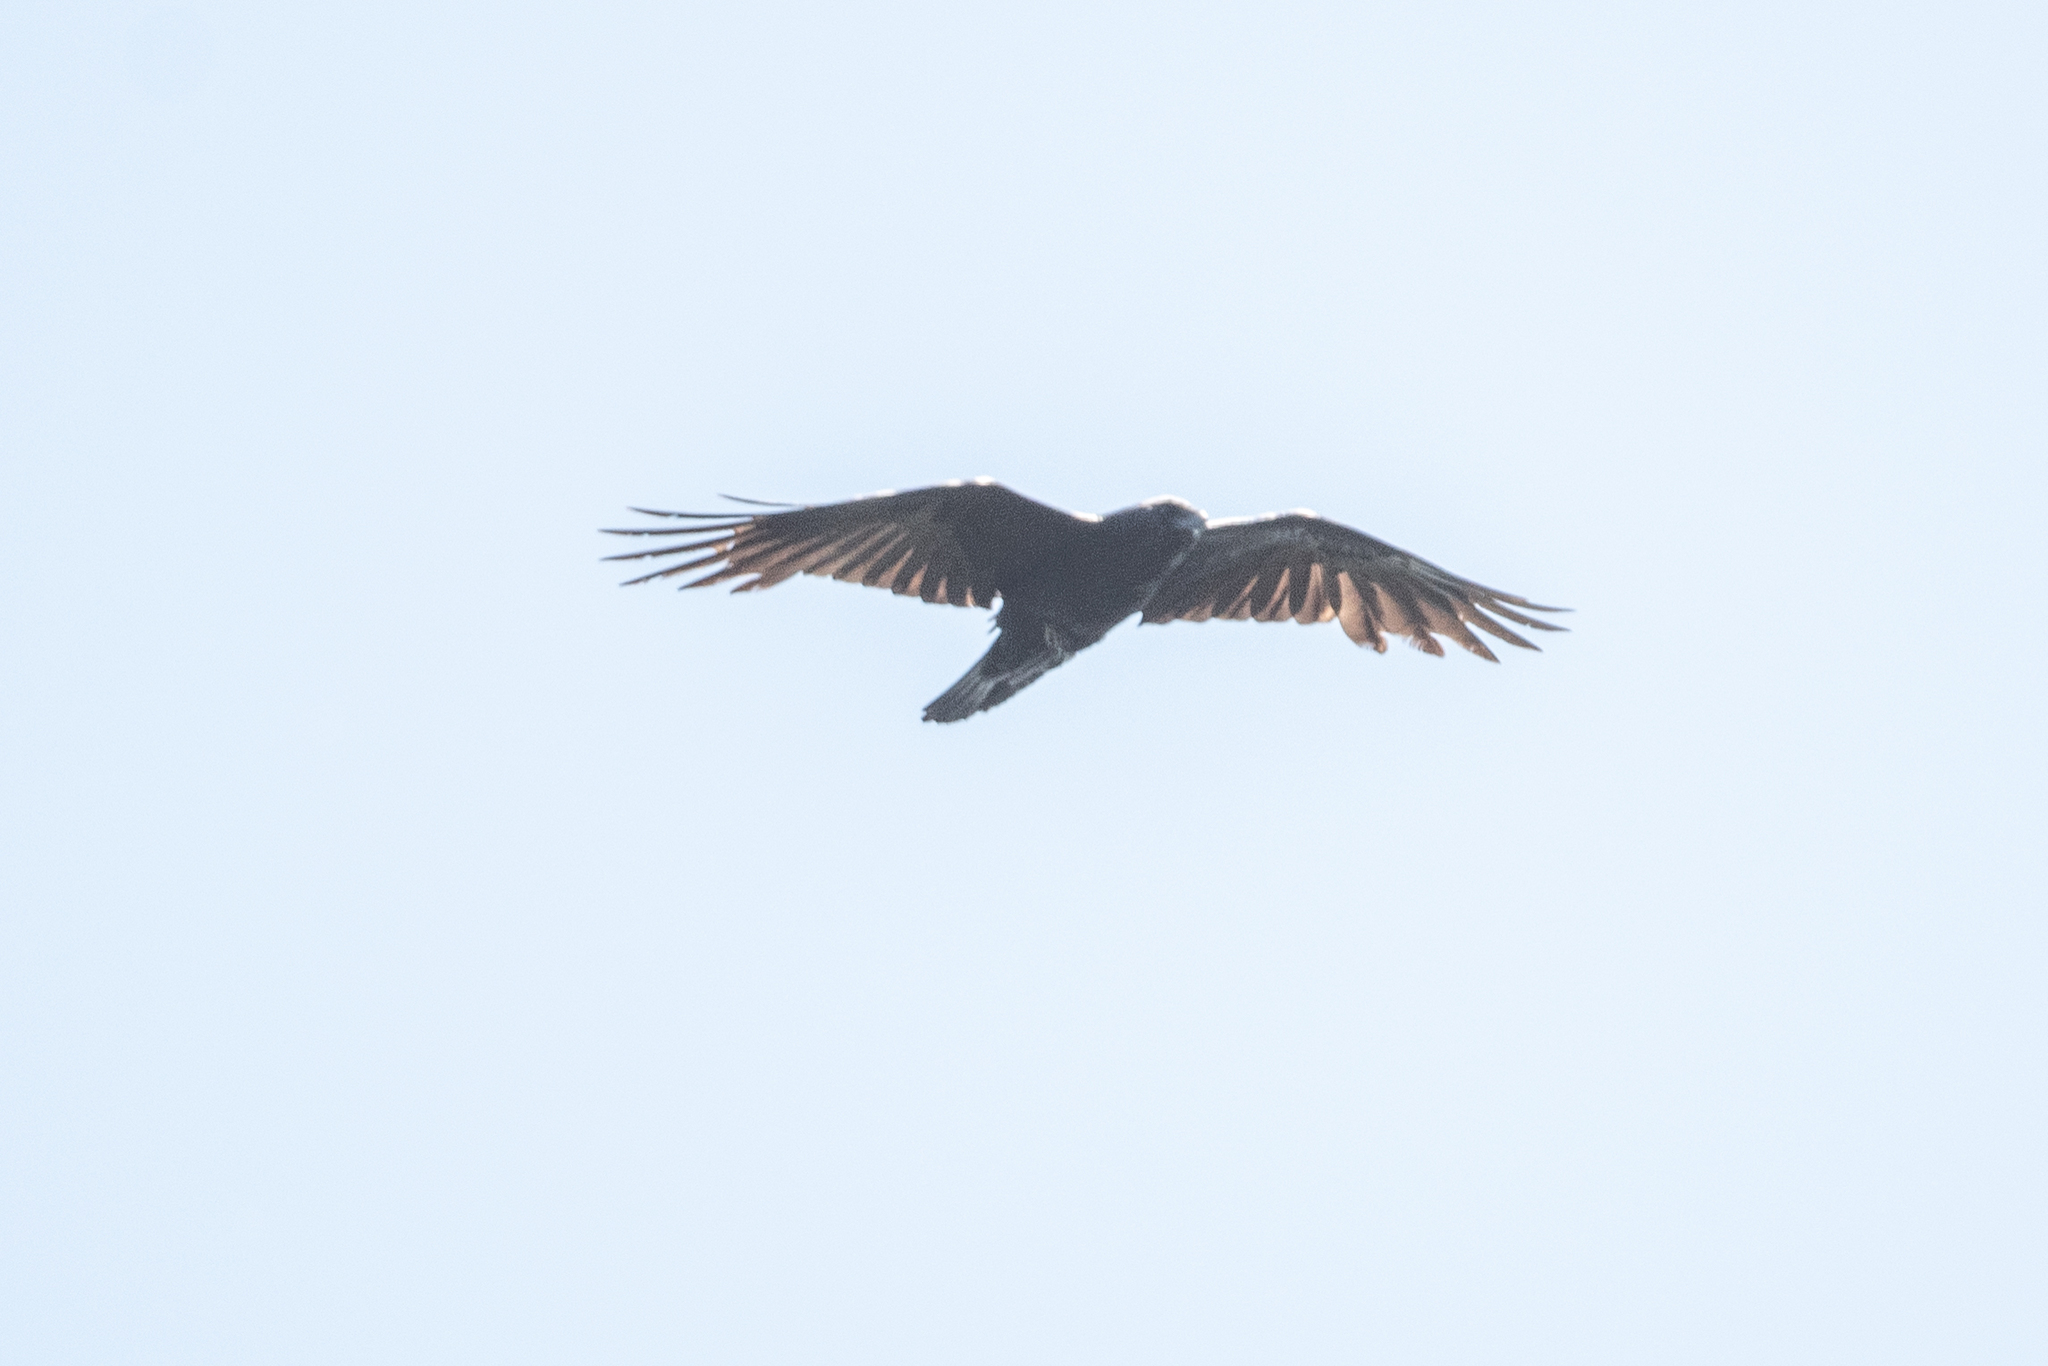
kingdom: Animalia
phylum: Chordata
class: Aves
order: Passeriformes
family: Corvidae
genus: Corvus
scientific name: Corvus brachyrhynchos
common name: American crow
